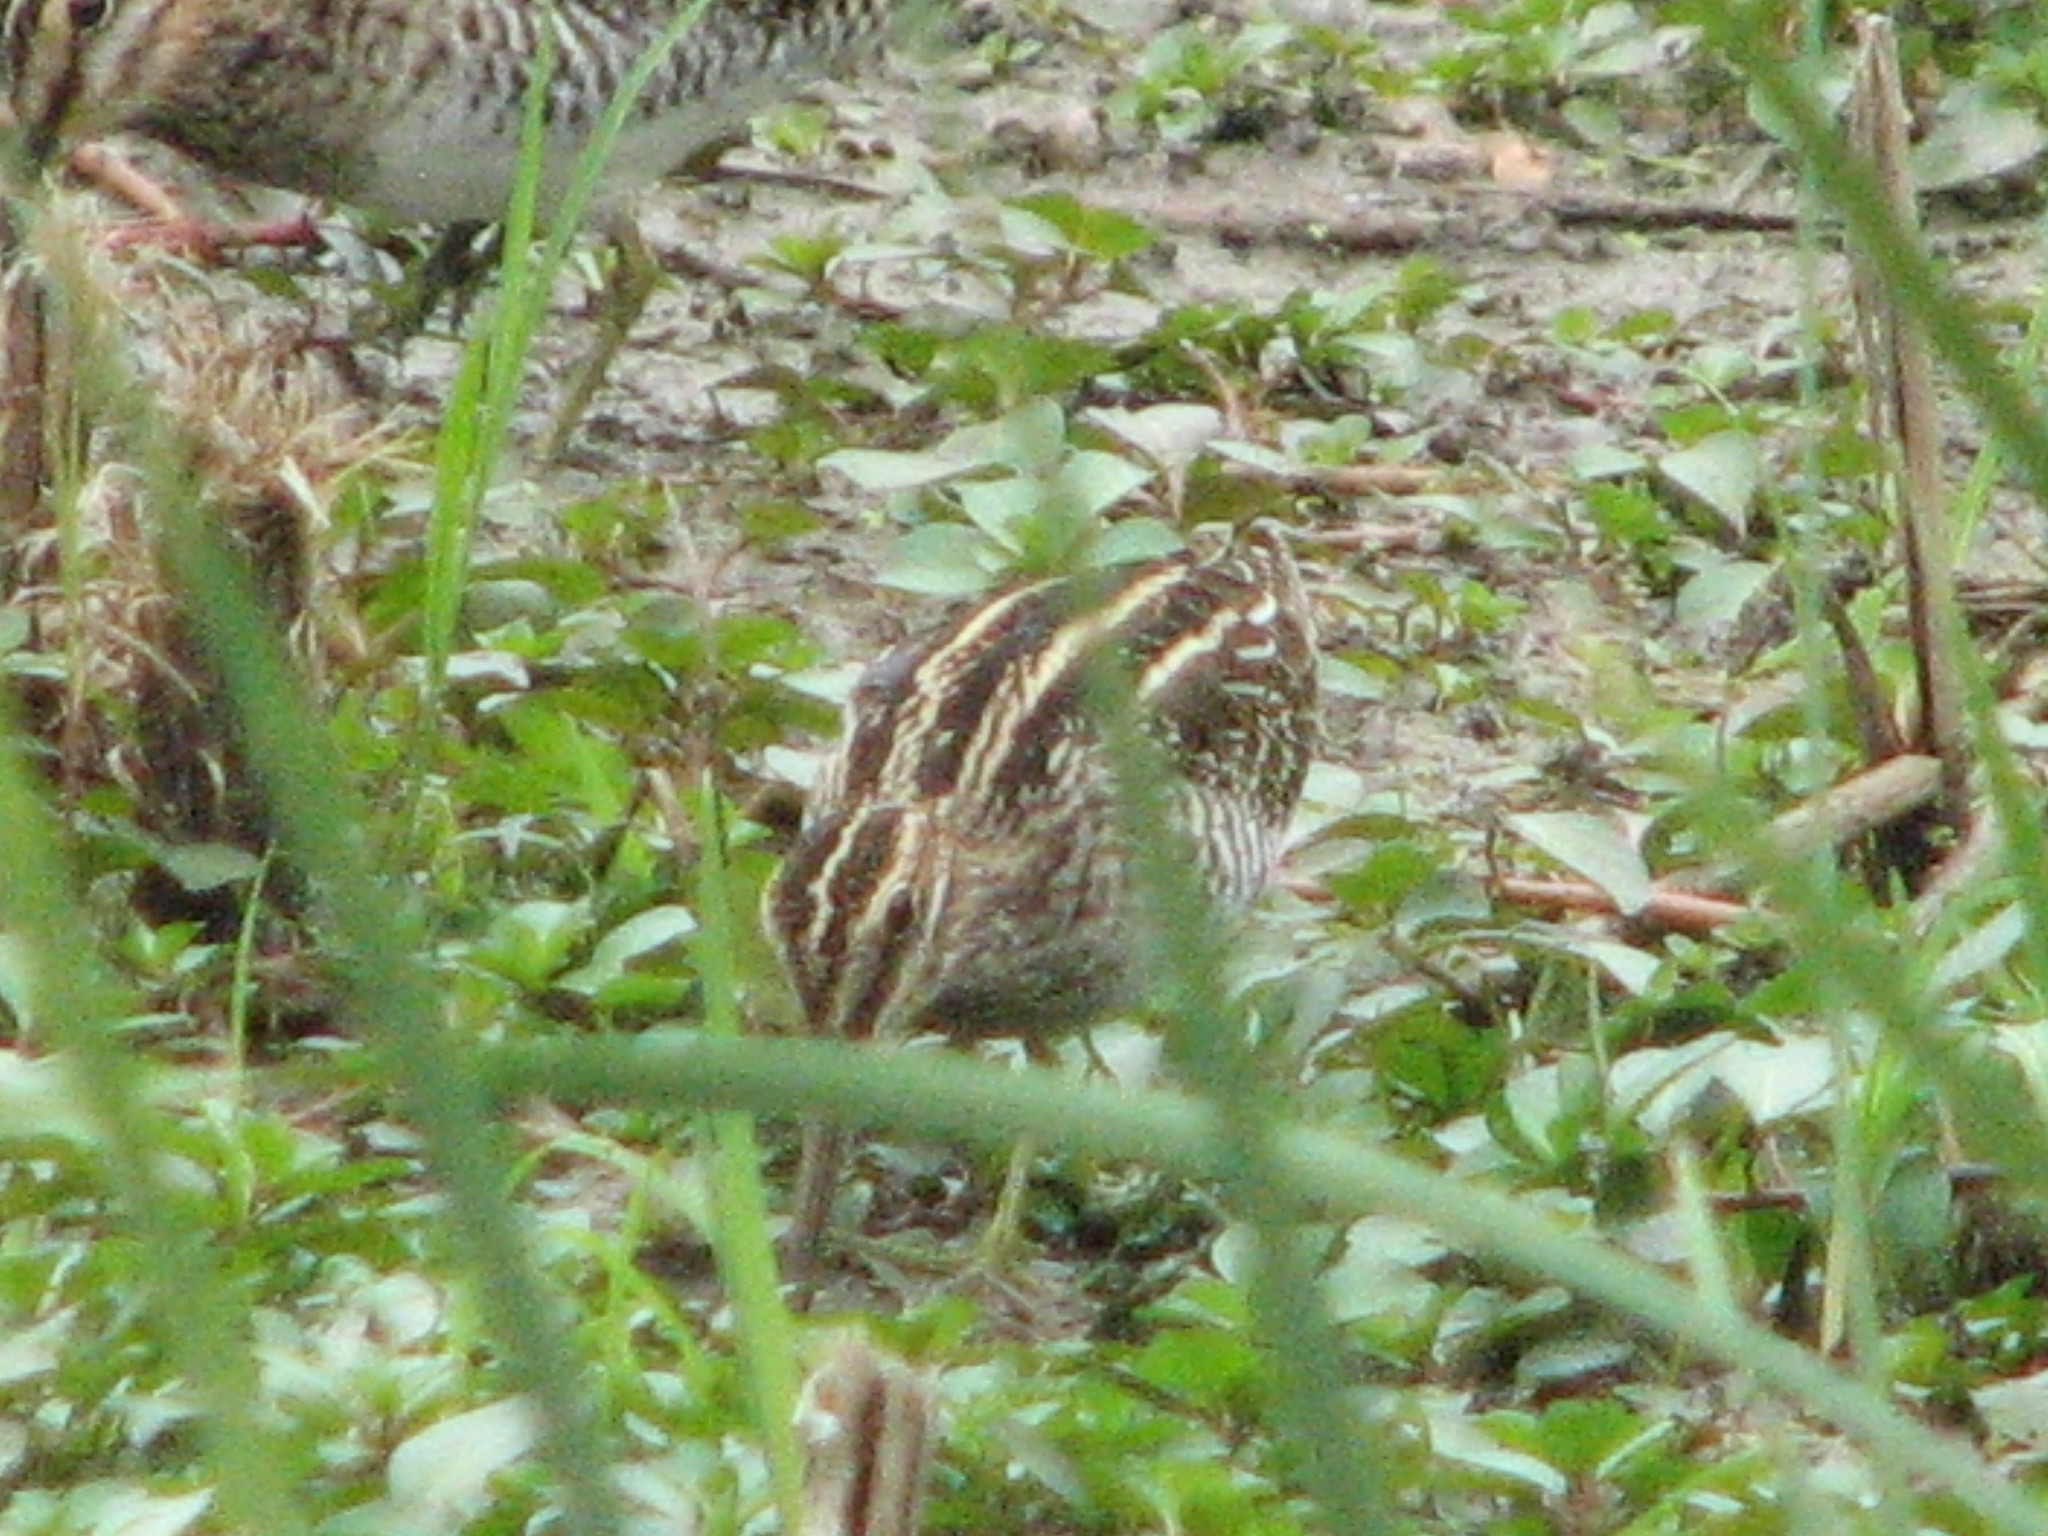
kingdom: Animalia
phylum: Chordata
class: Aves
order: Charadriiformes
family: Scolopacidae
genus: Gallinago
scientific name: Gallinago delicata
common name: Wilson's snipe
